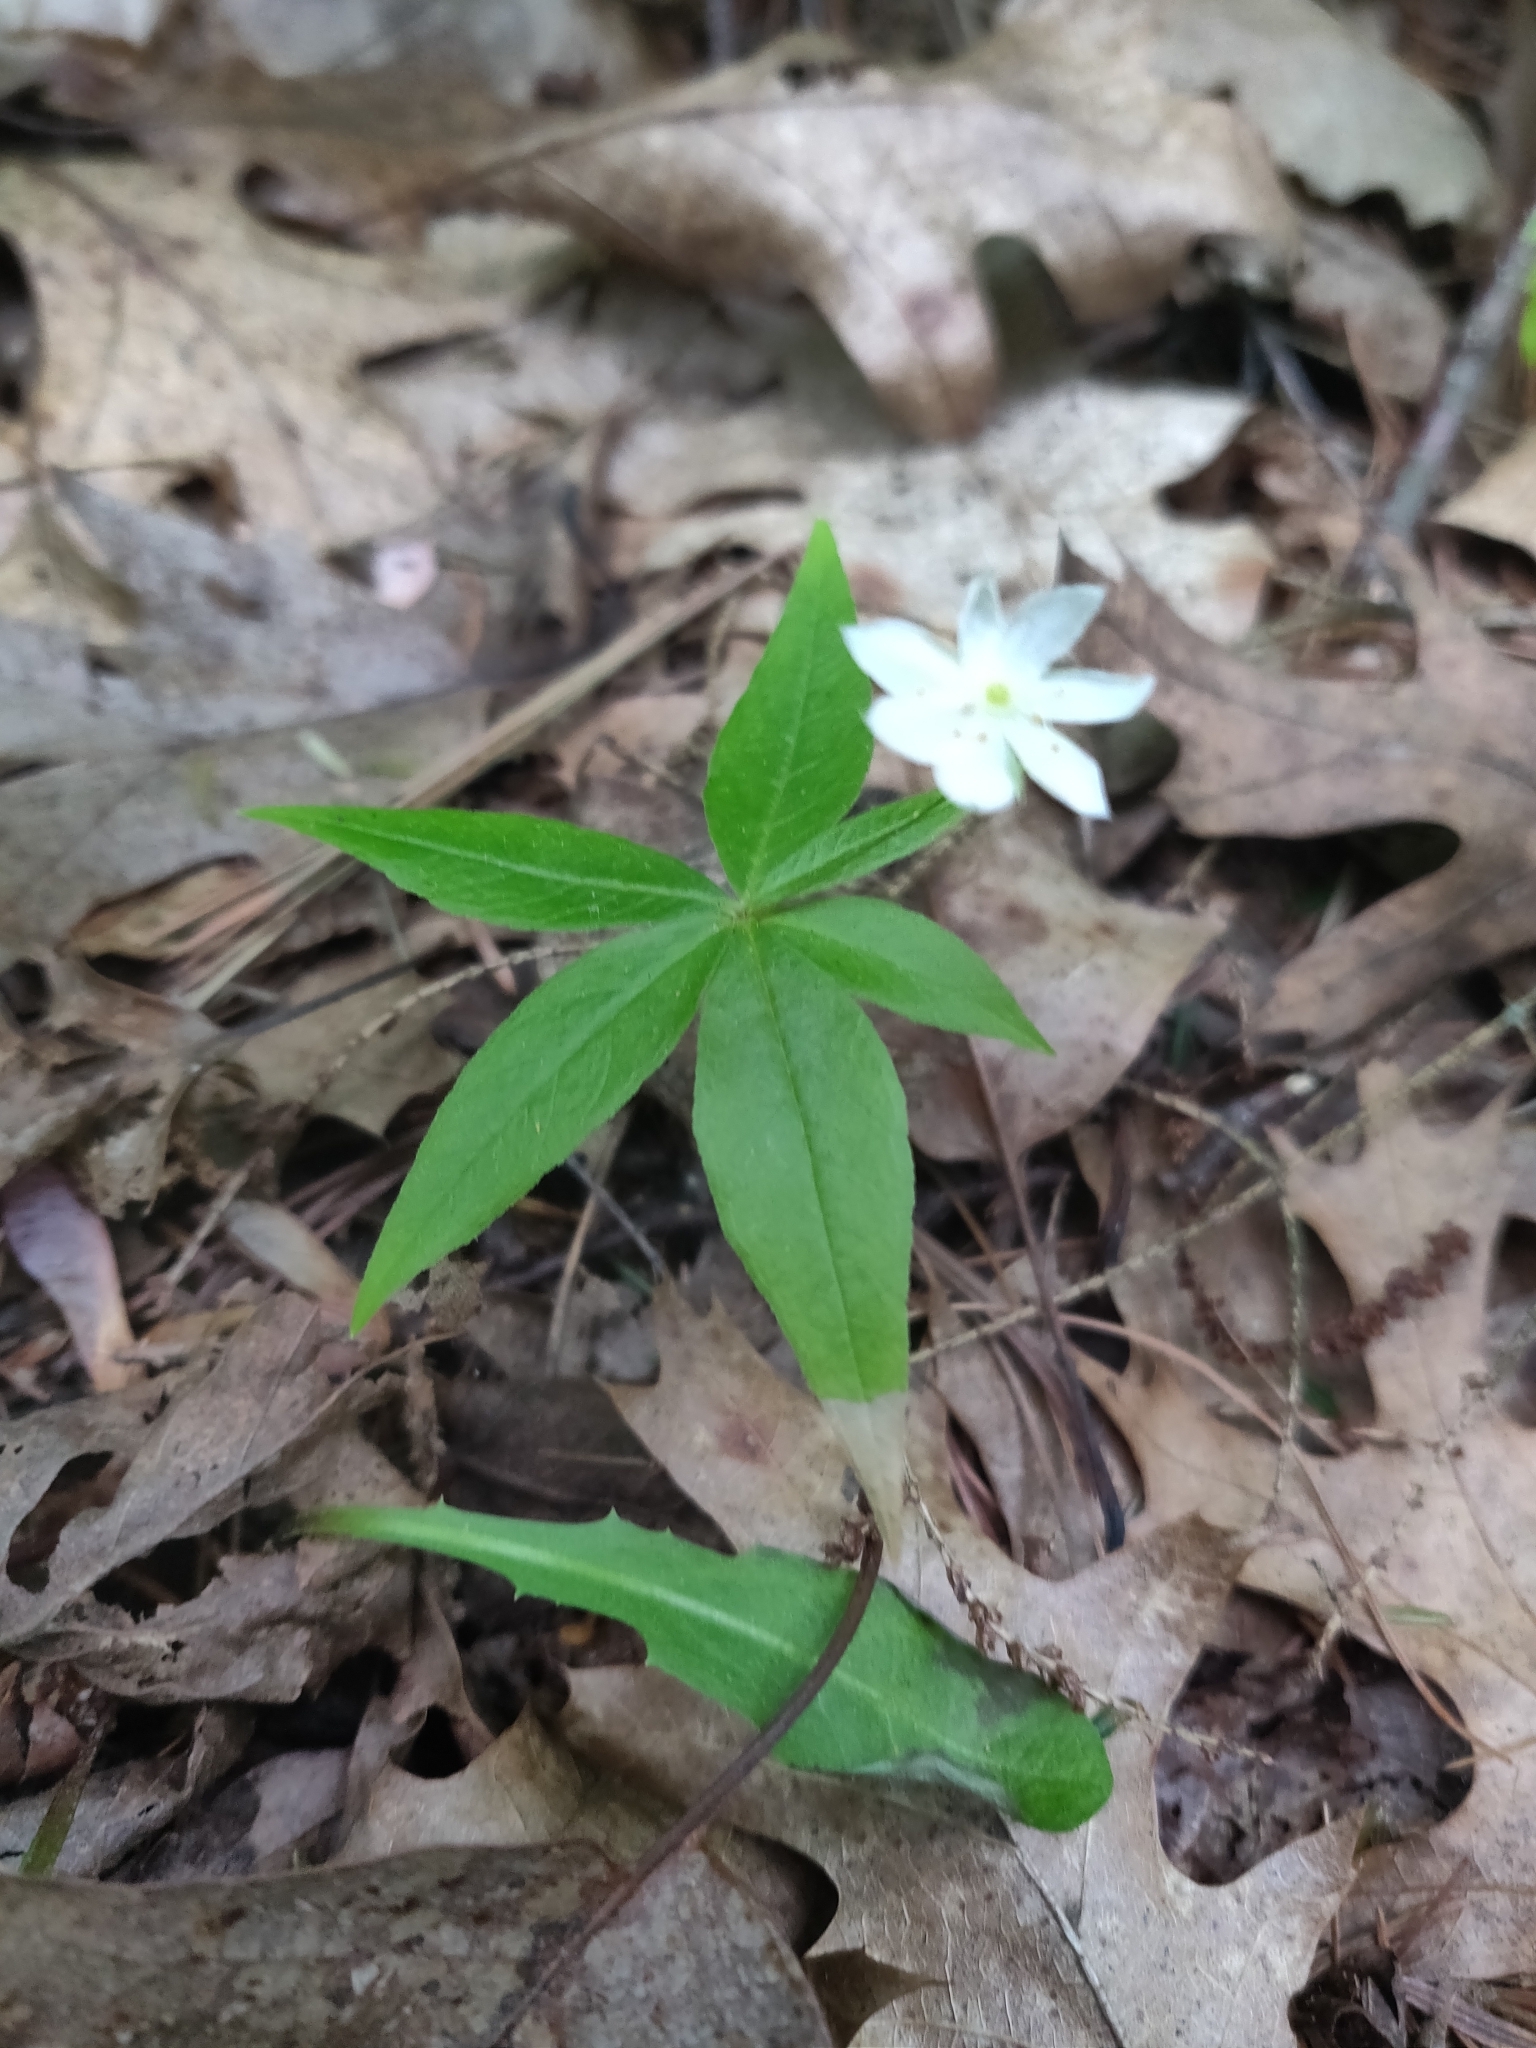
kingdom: Plantae
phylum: Tracheophyta
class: Magnoliopsida
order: Ericales
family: Primulaceae
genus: Lysimachia
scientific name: Lysimachia borealis
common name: American starflower
